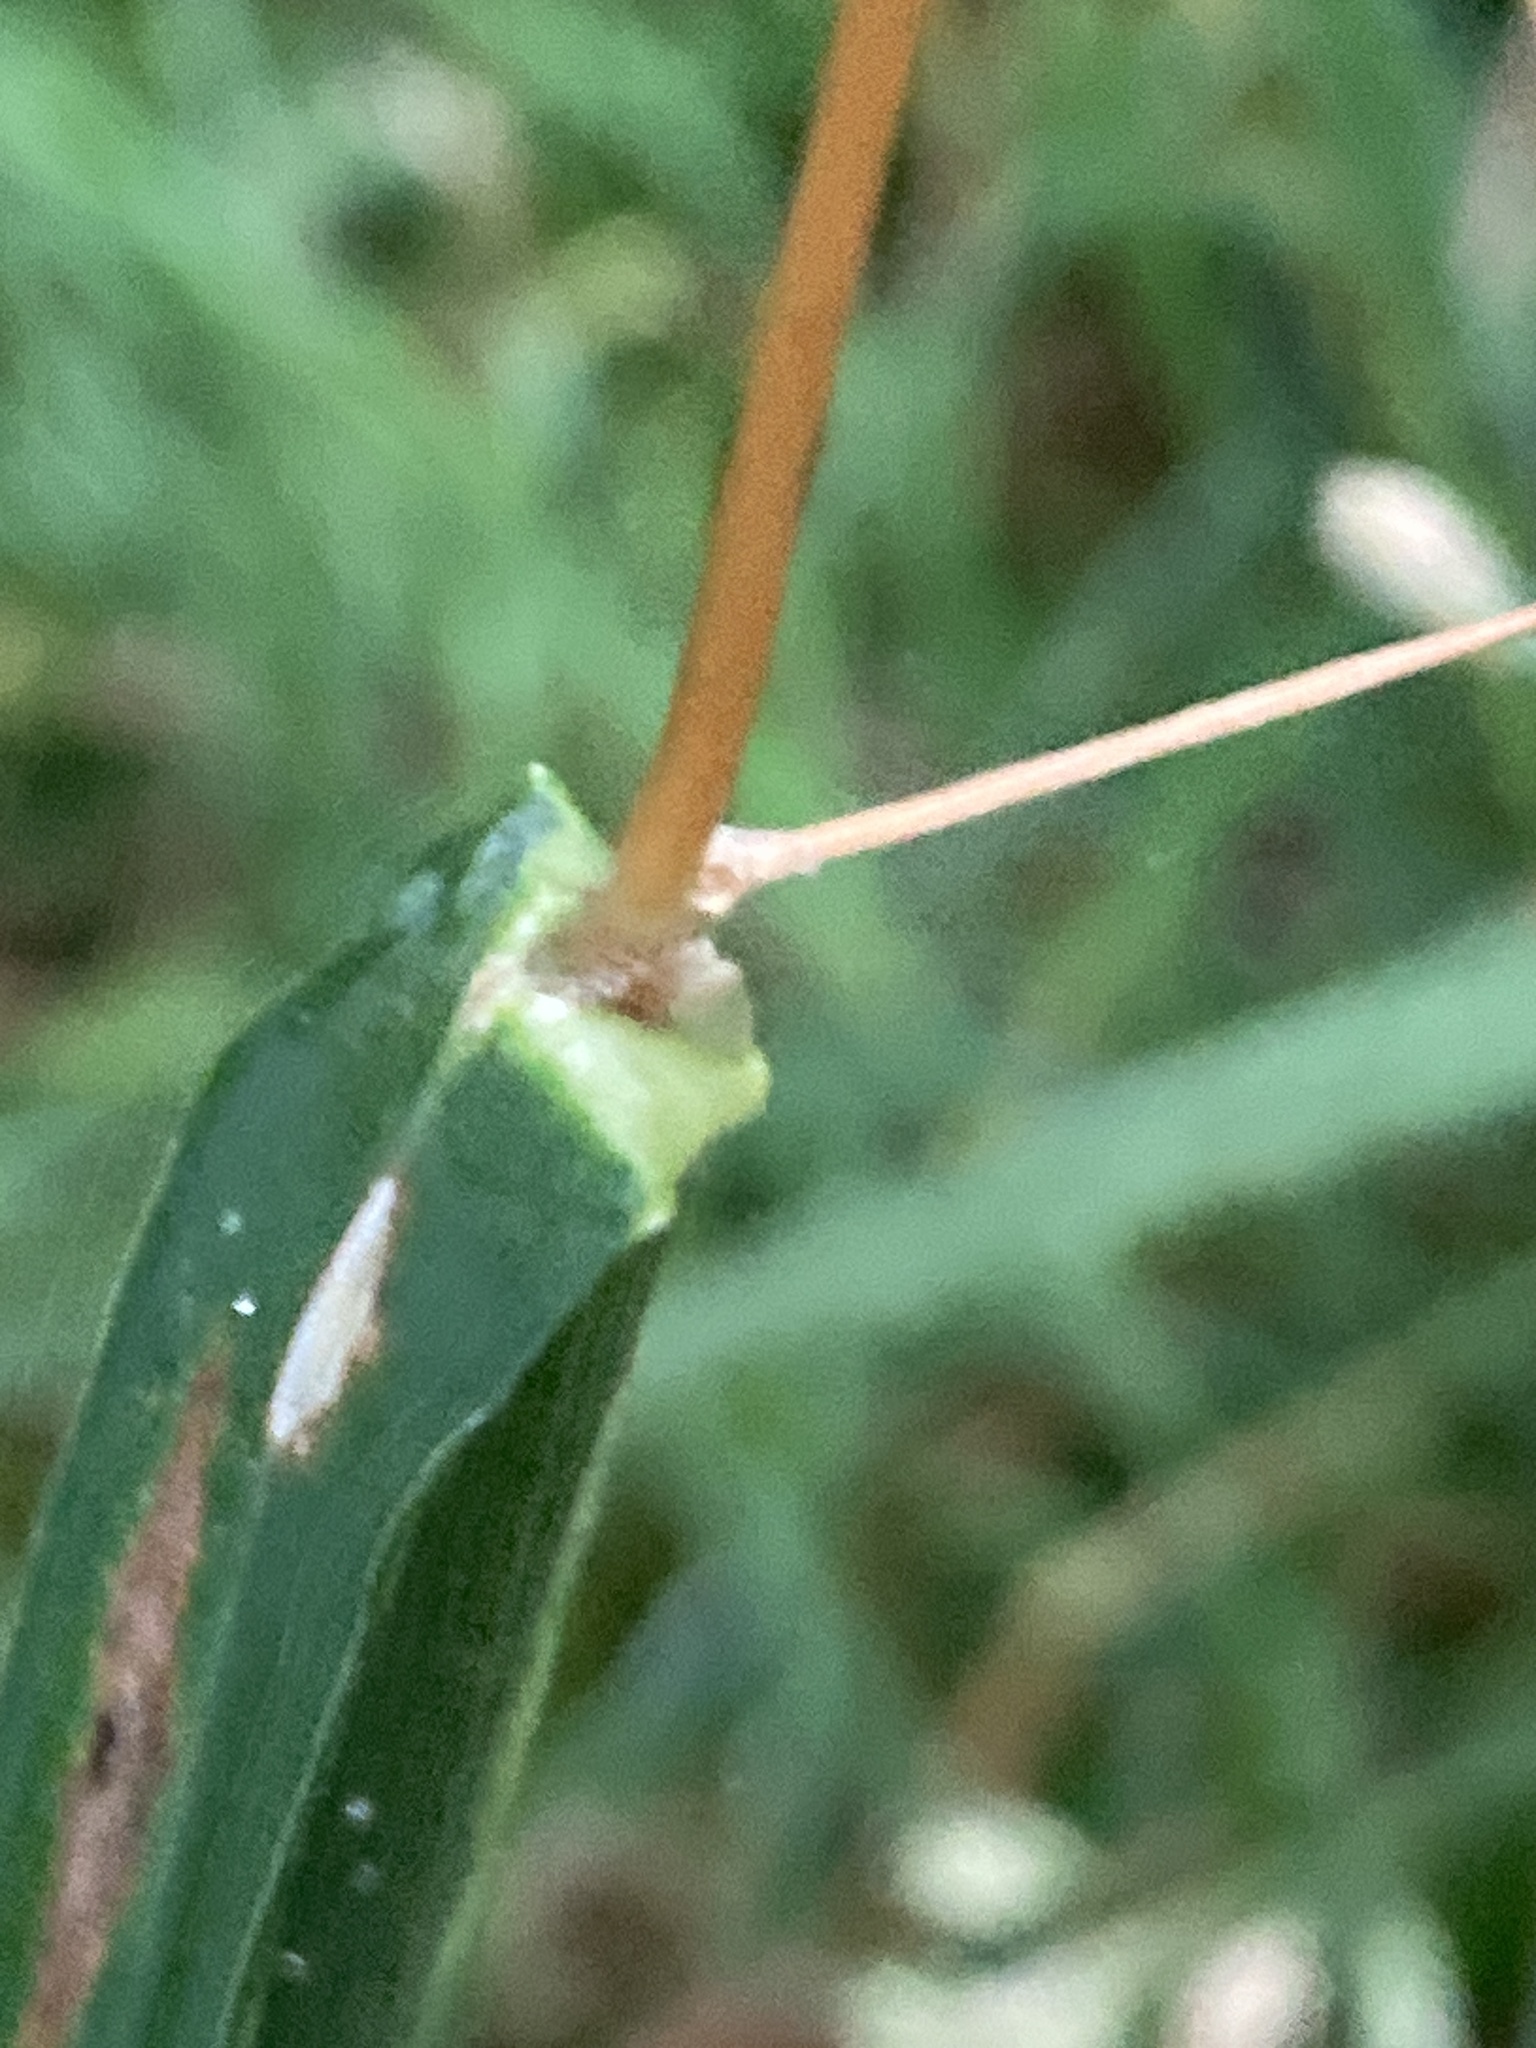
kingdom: Plantae
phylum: Tracheophyta
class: Liliopsida
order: Poales
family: Poaceae
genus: Dactylis
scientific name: Dactylis glomerata
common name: Orchardgrass
